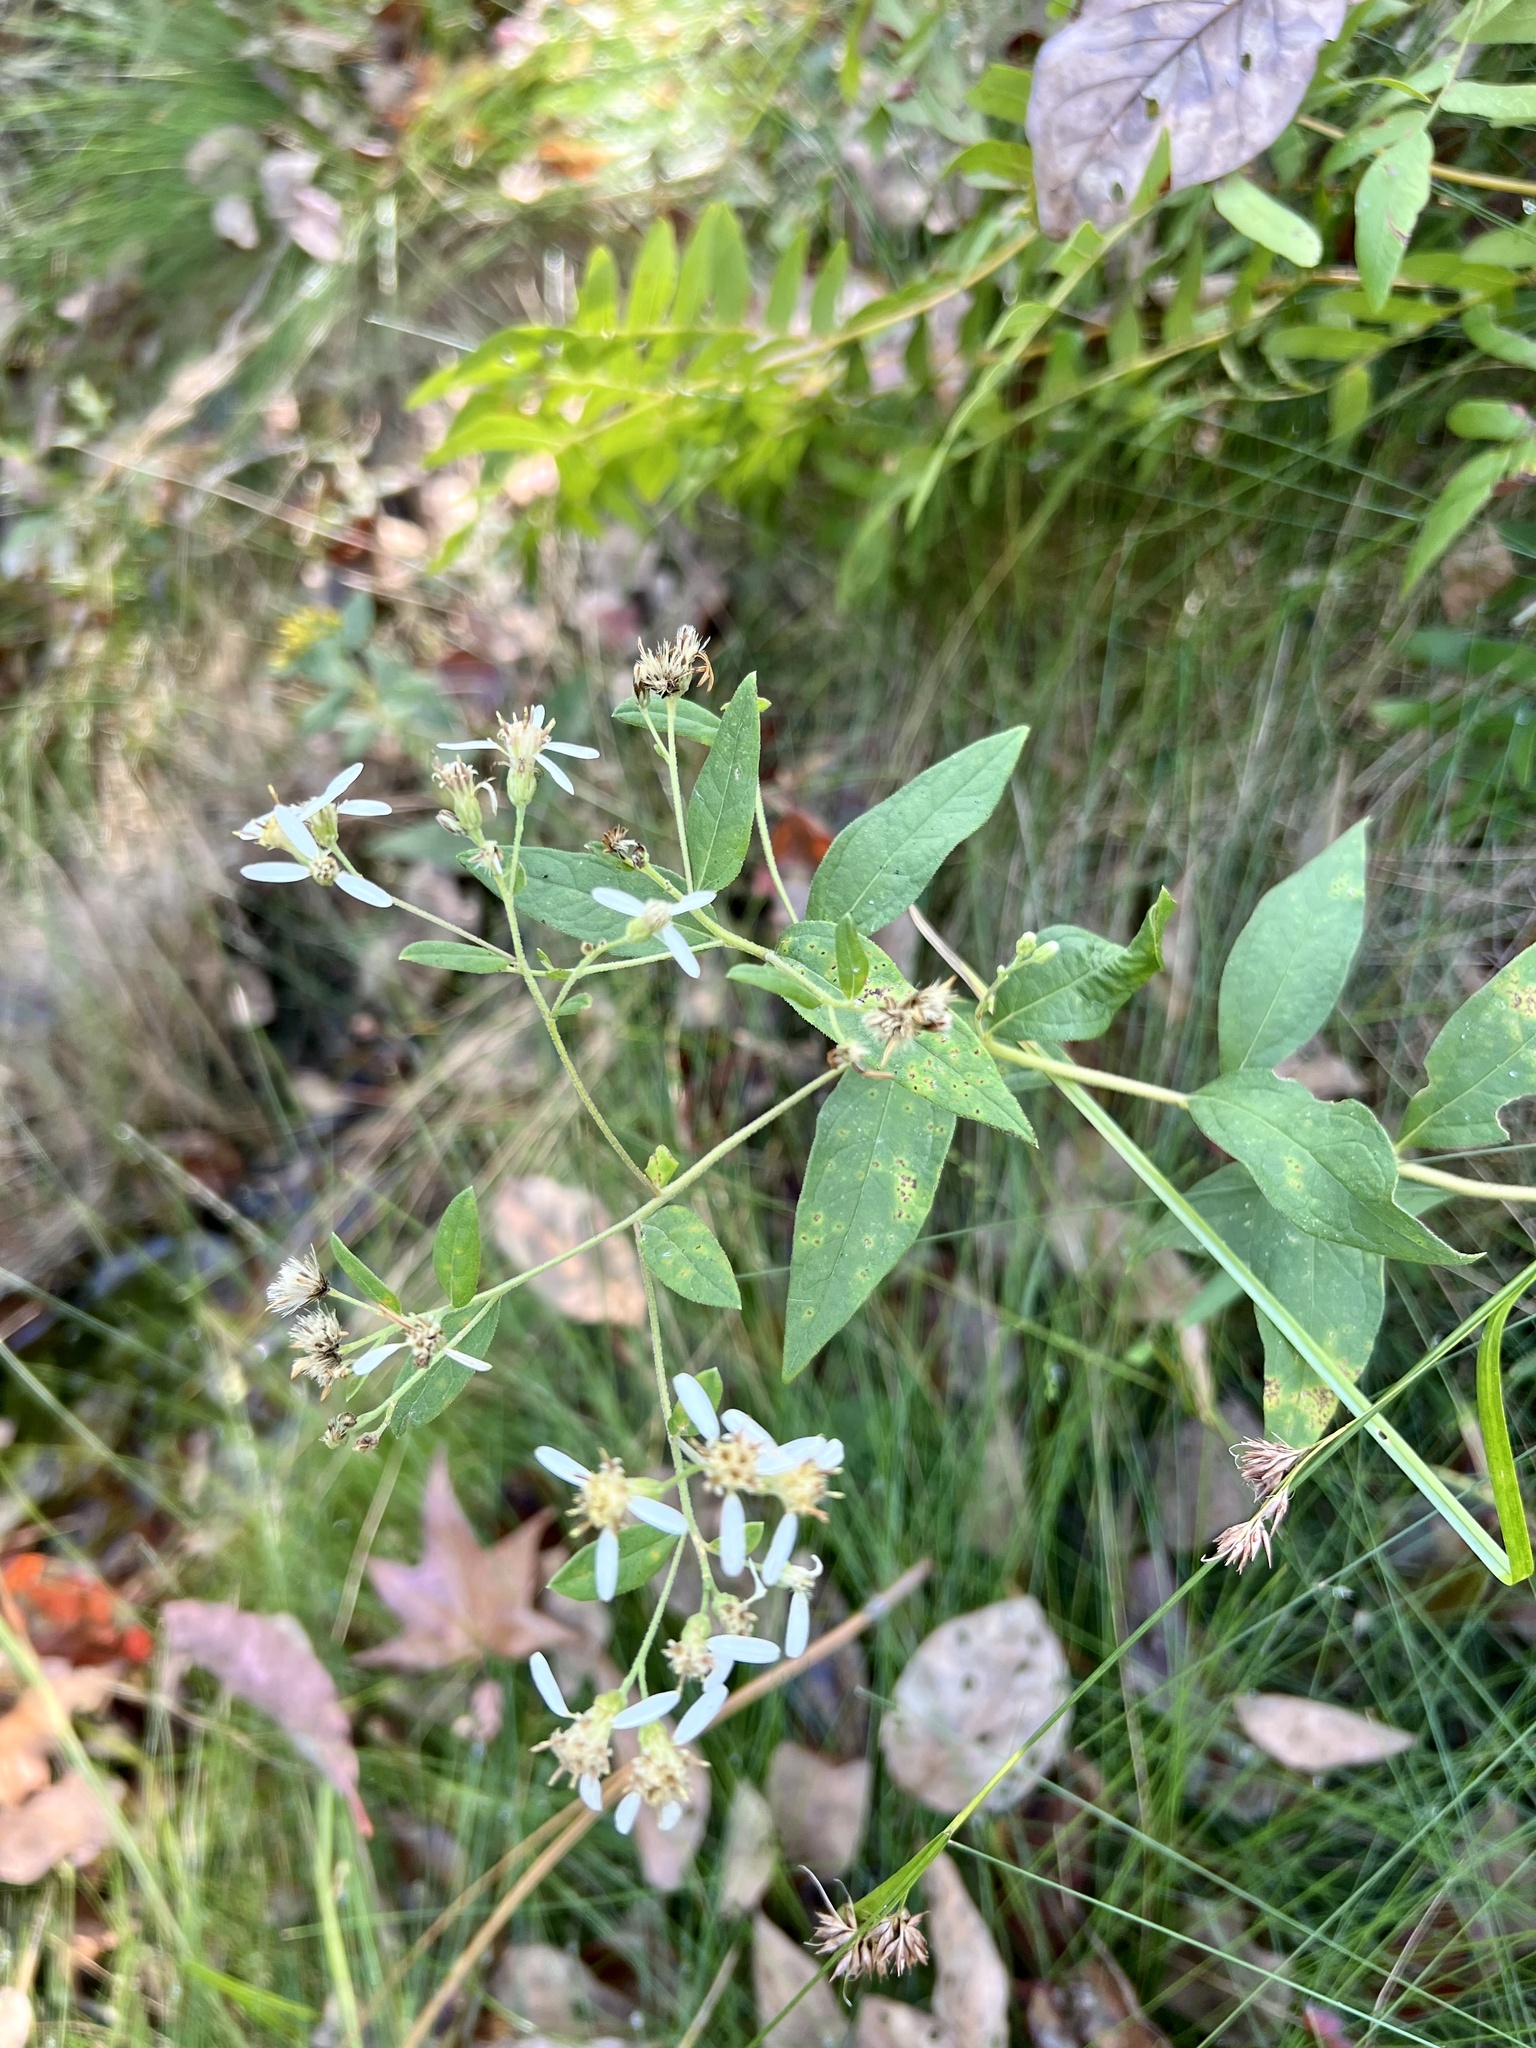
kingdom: Plantae
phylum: Tracheophyta
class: Magnoliopsida
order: Asterales
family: Asteraceae
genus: Doellingeria
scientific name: Doellingeria sericocarpoides
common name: Southern tall flat-top aster
